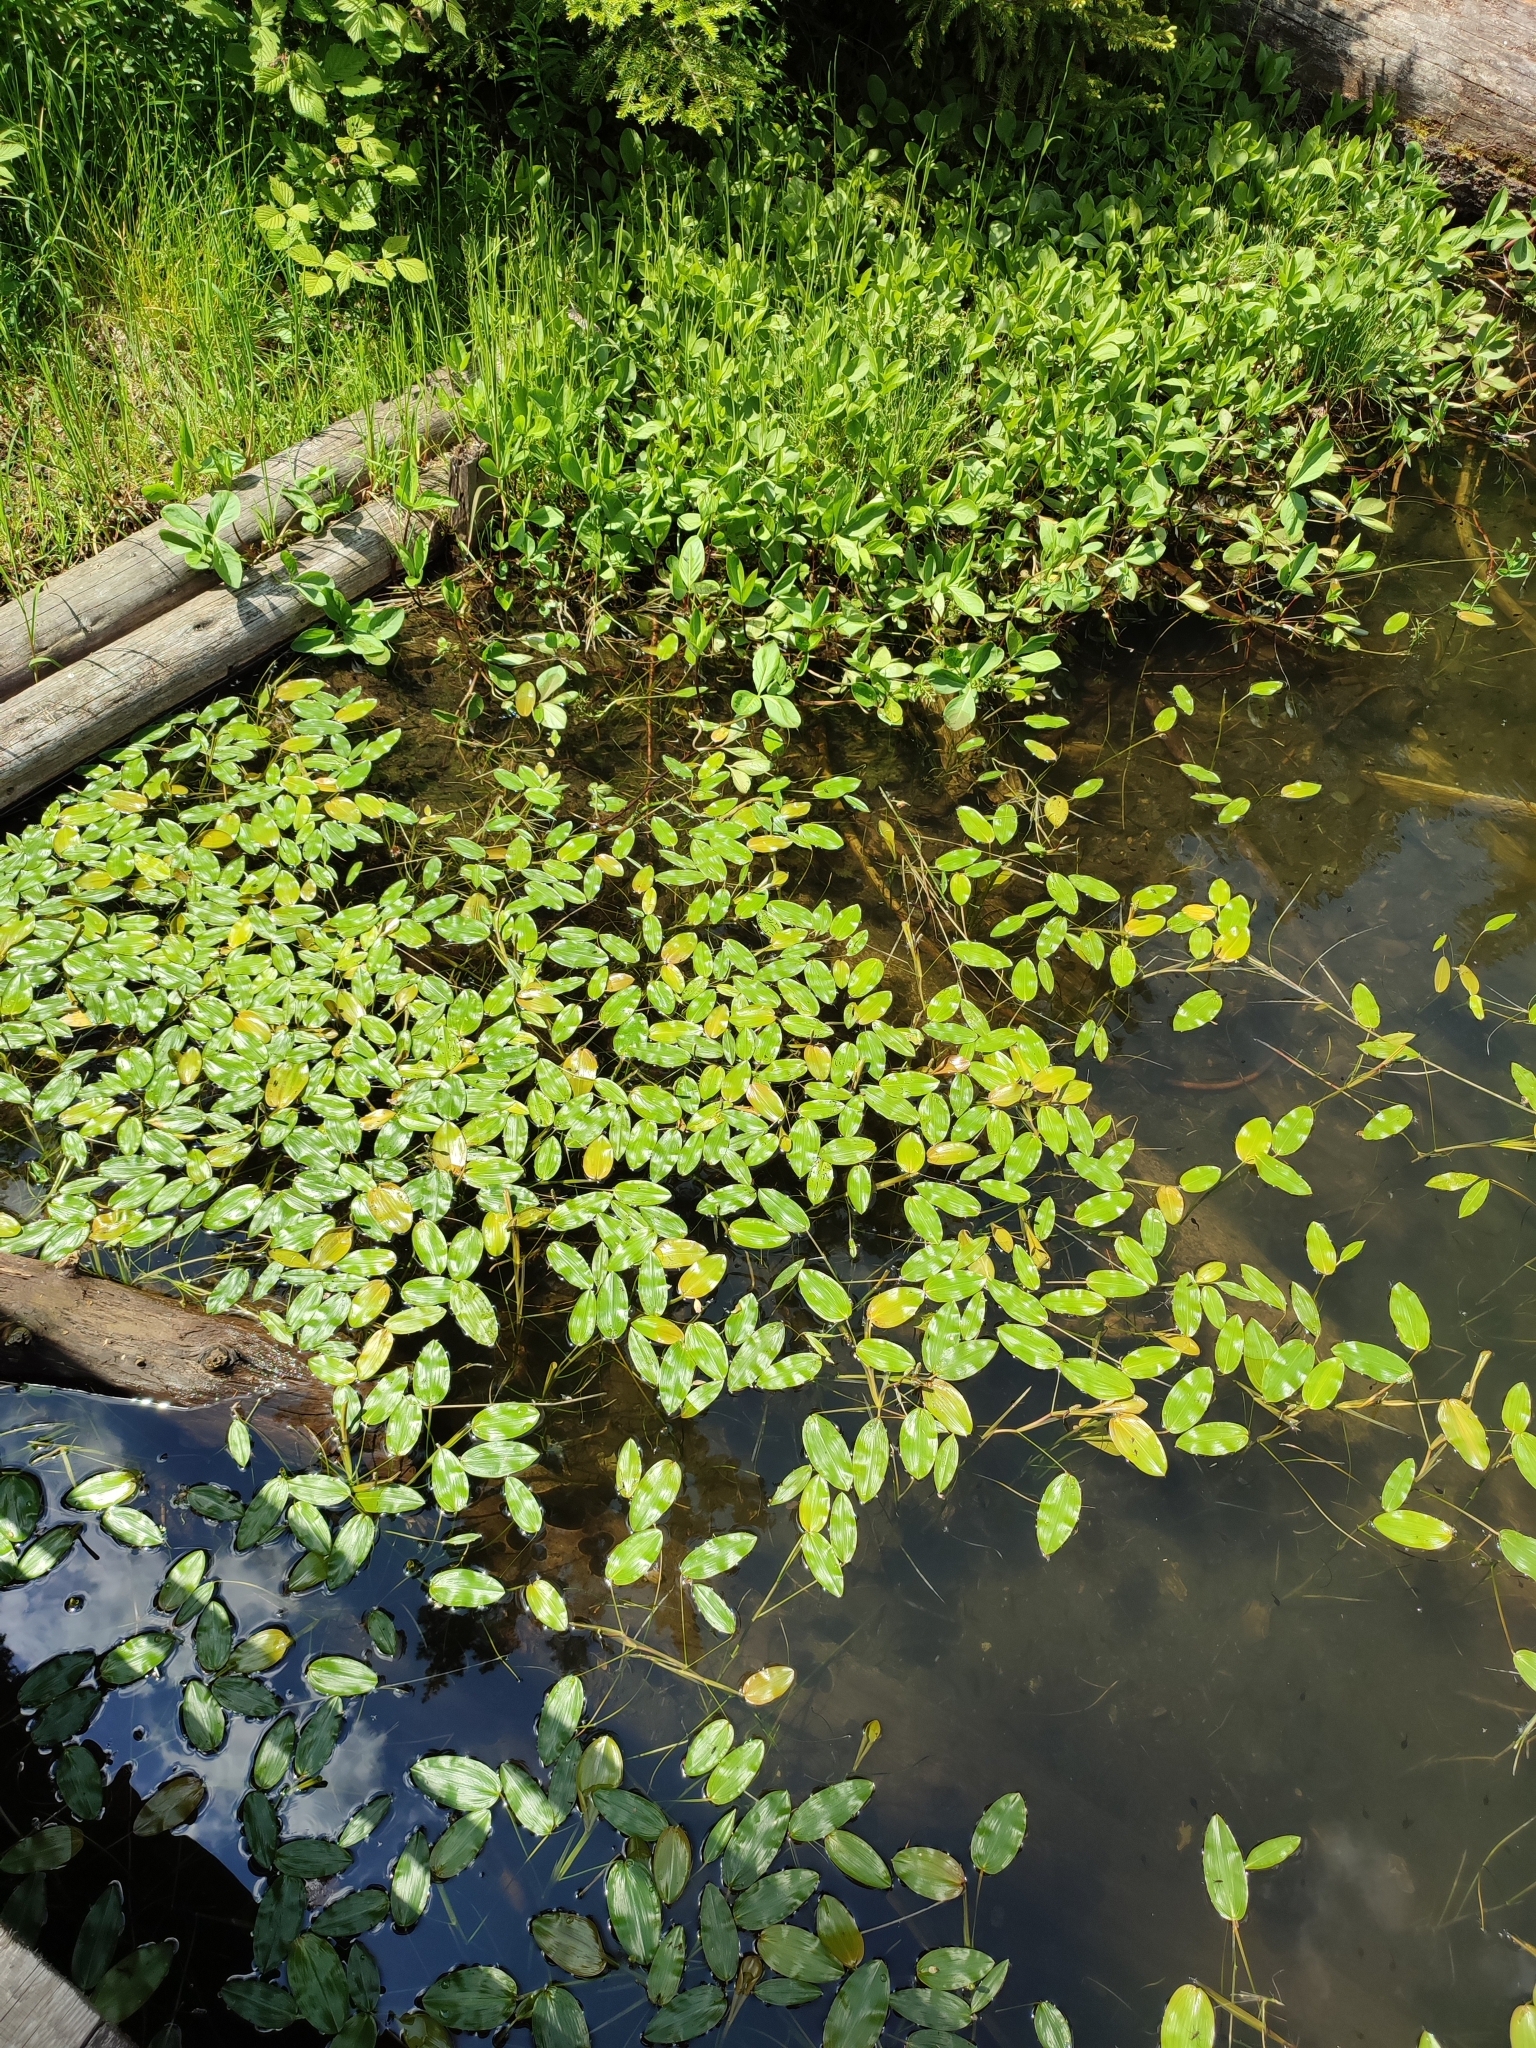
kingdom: Plantae
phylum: Tracheophyta
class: Liliopsida
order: Alismatales
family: Potamogetonaceae
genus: Potamogeton
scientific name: Potamogeton natans
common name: Broad-leaved pondweed
